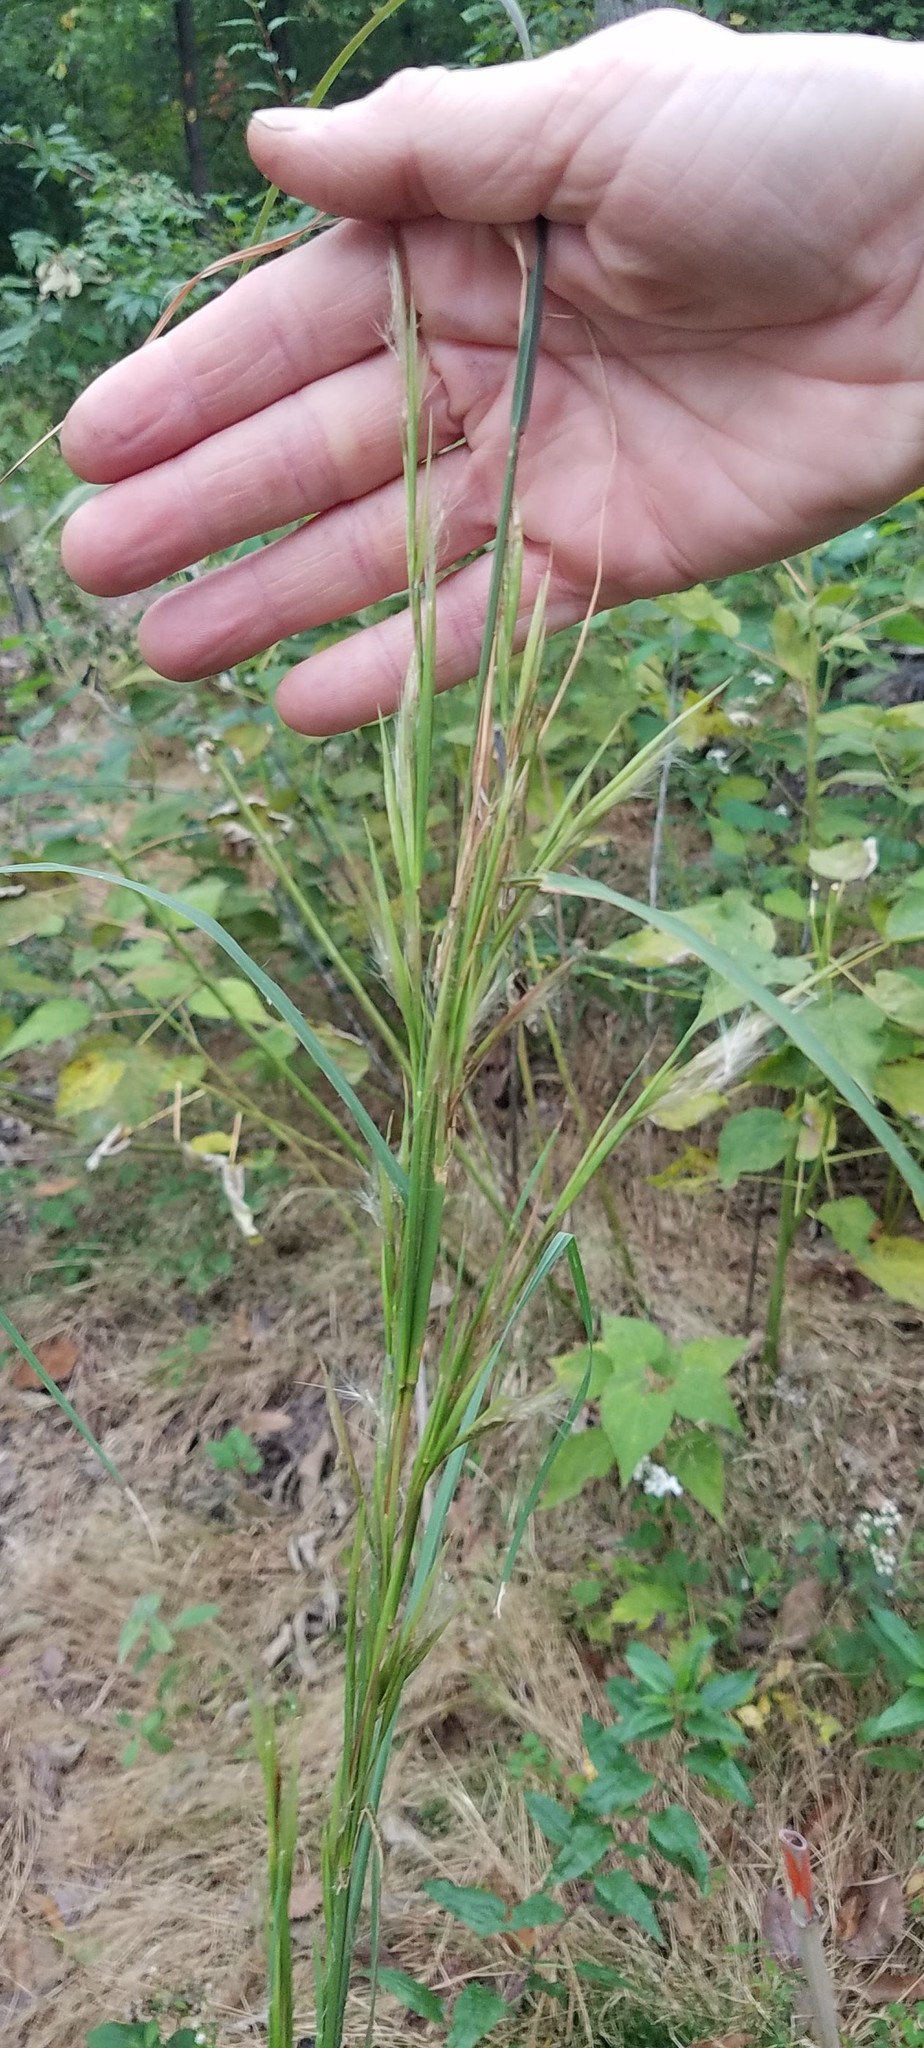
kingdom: Plantae
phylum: Tracheophyta
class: Liliopsida
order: Poales
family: Poaceae
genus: Andropogon
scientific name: Andropogon virginicus
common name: Broomsedge bluestem
